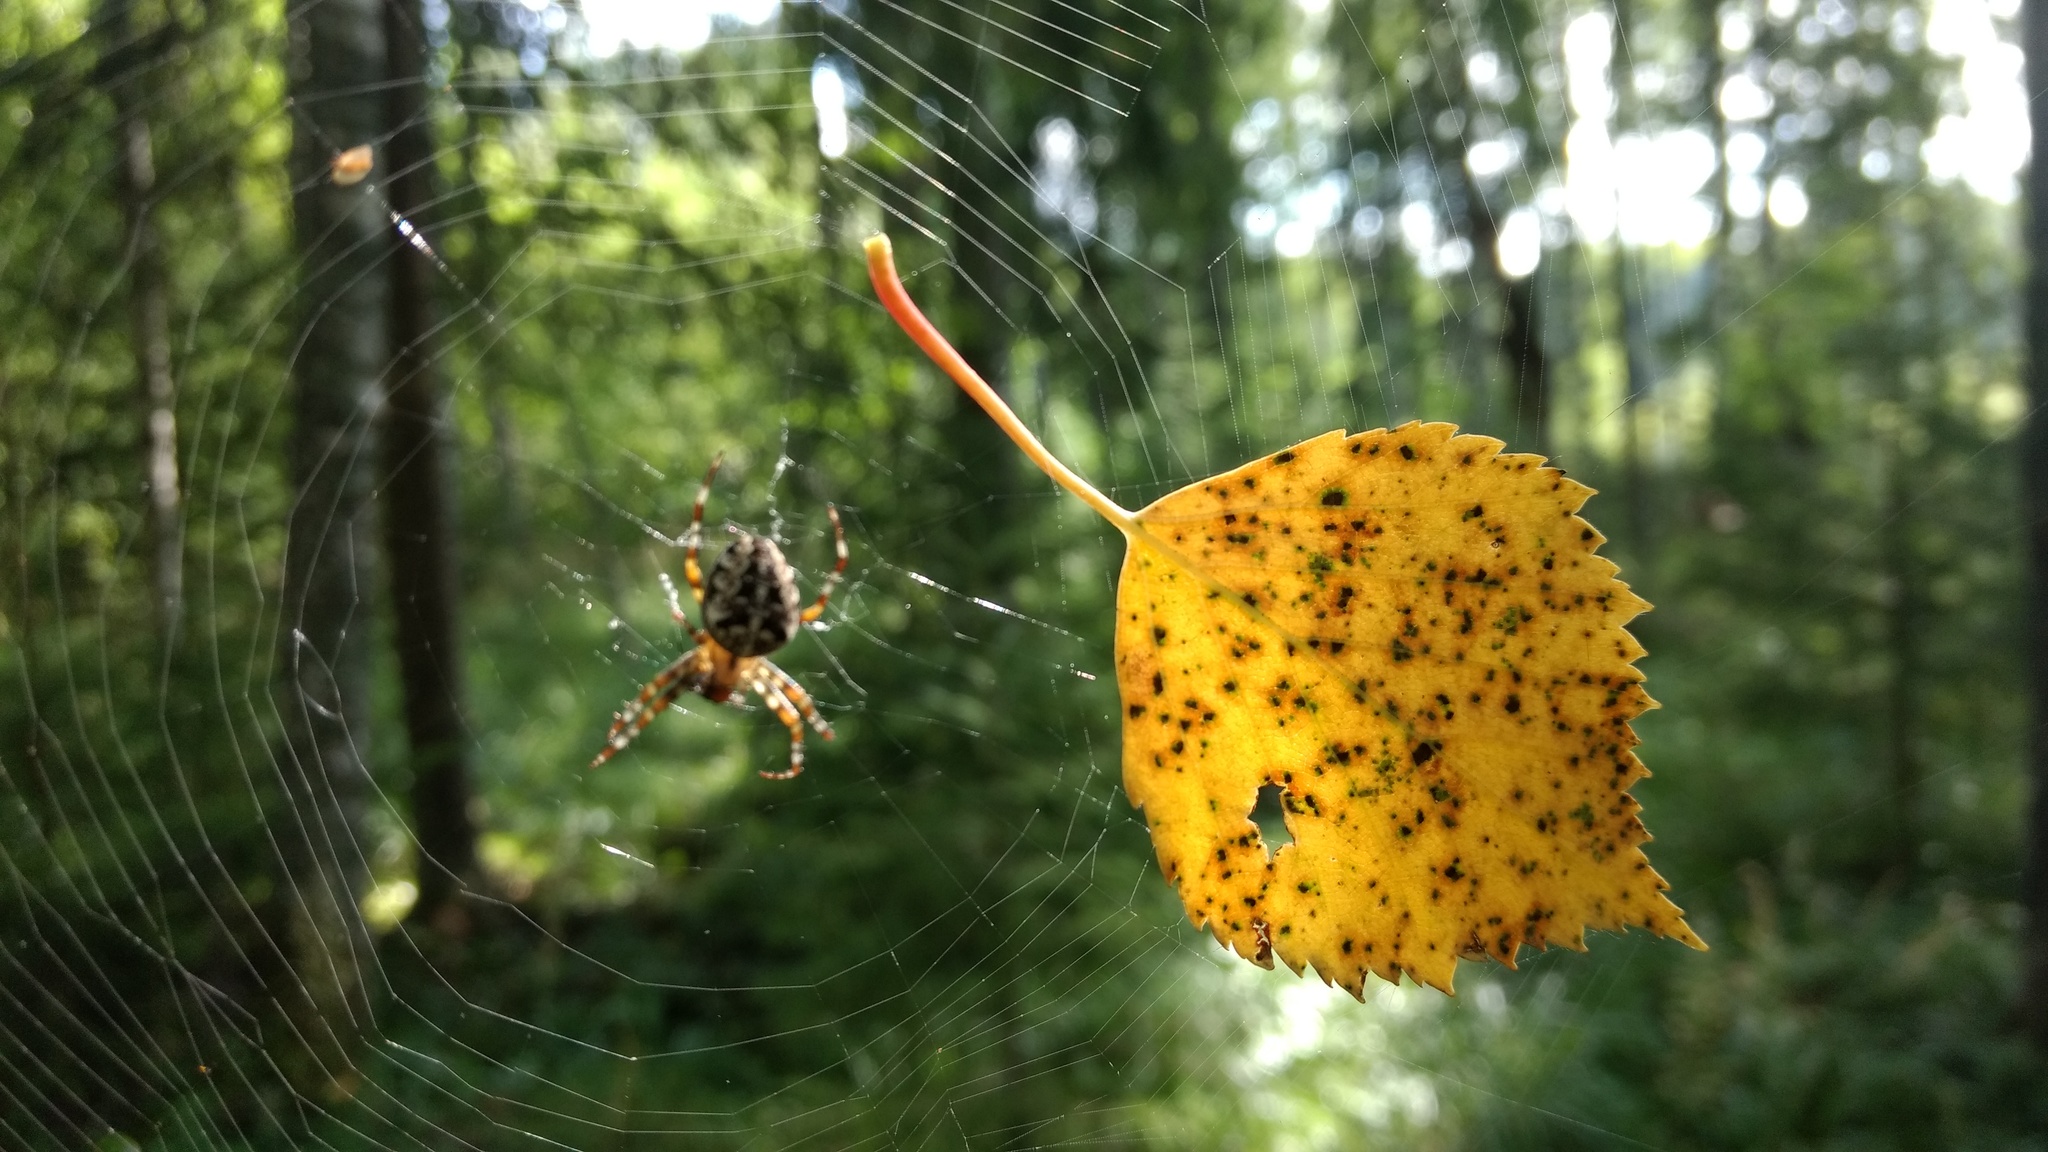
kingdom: Animalia
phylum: Arthropoda
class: Arachnida
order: Araneae
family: Araneidae
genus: Araneus
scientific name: Araneus diadematus
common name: Cross orbweaver
